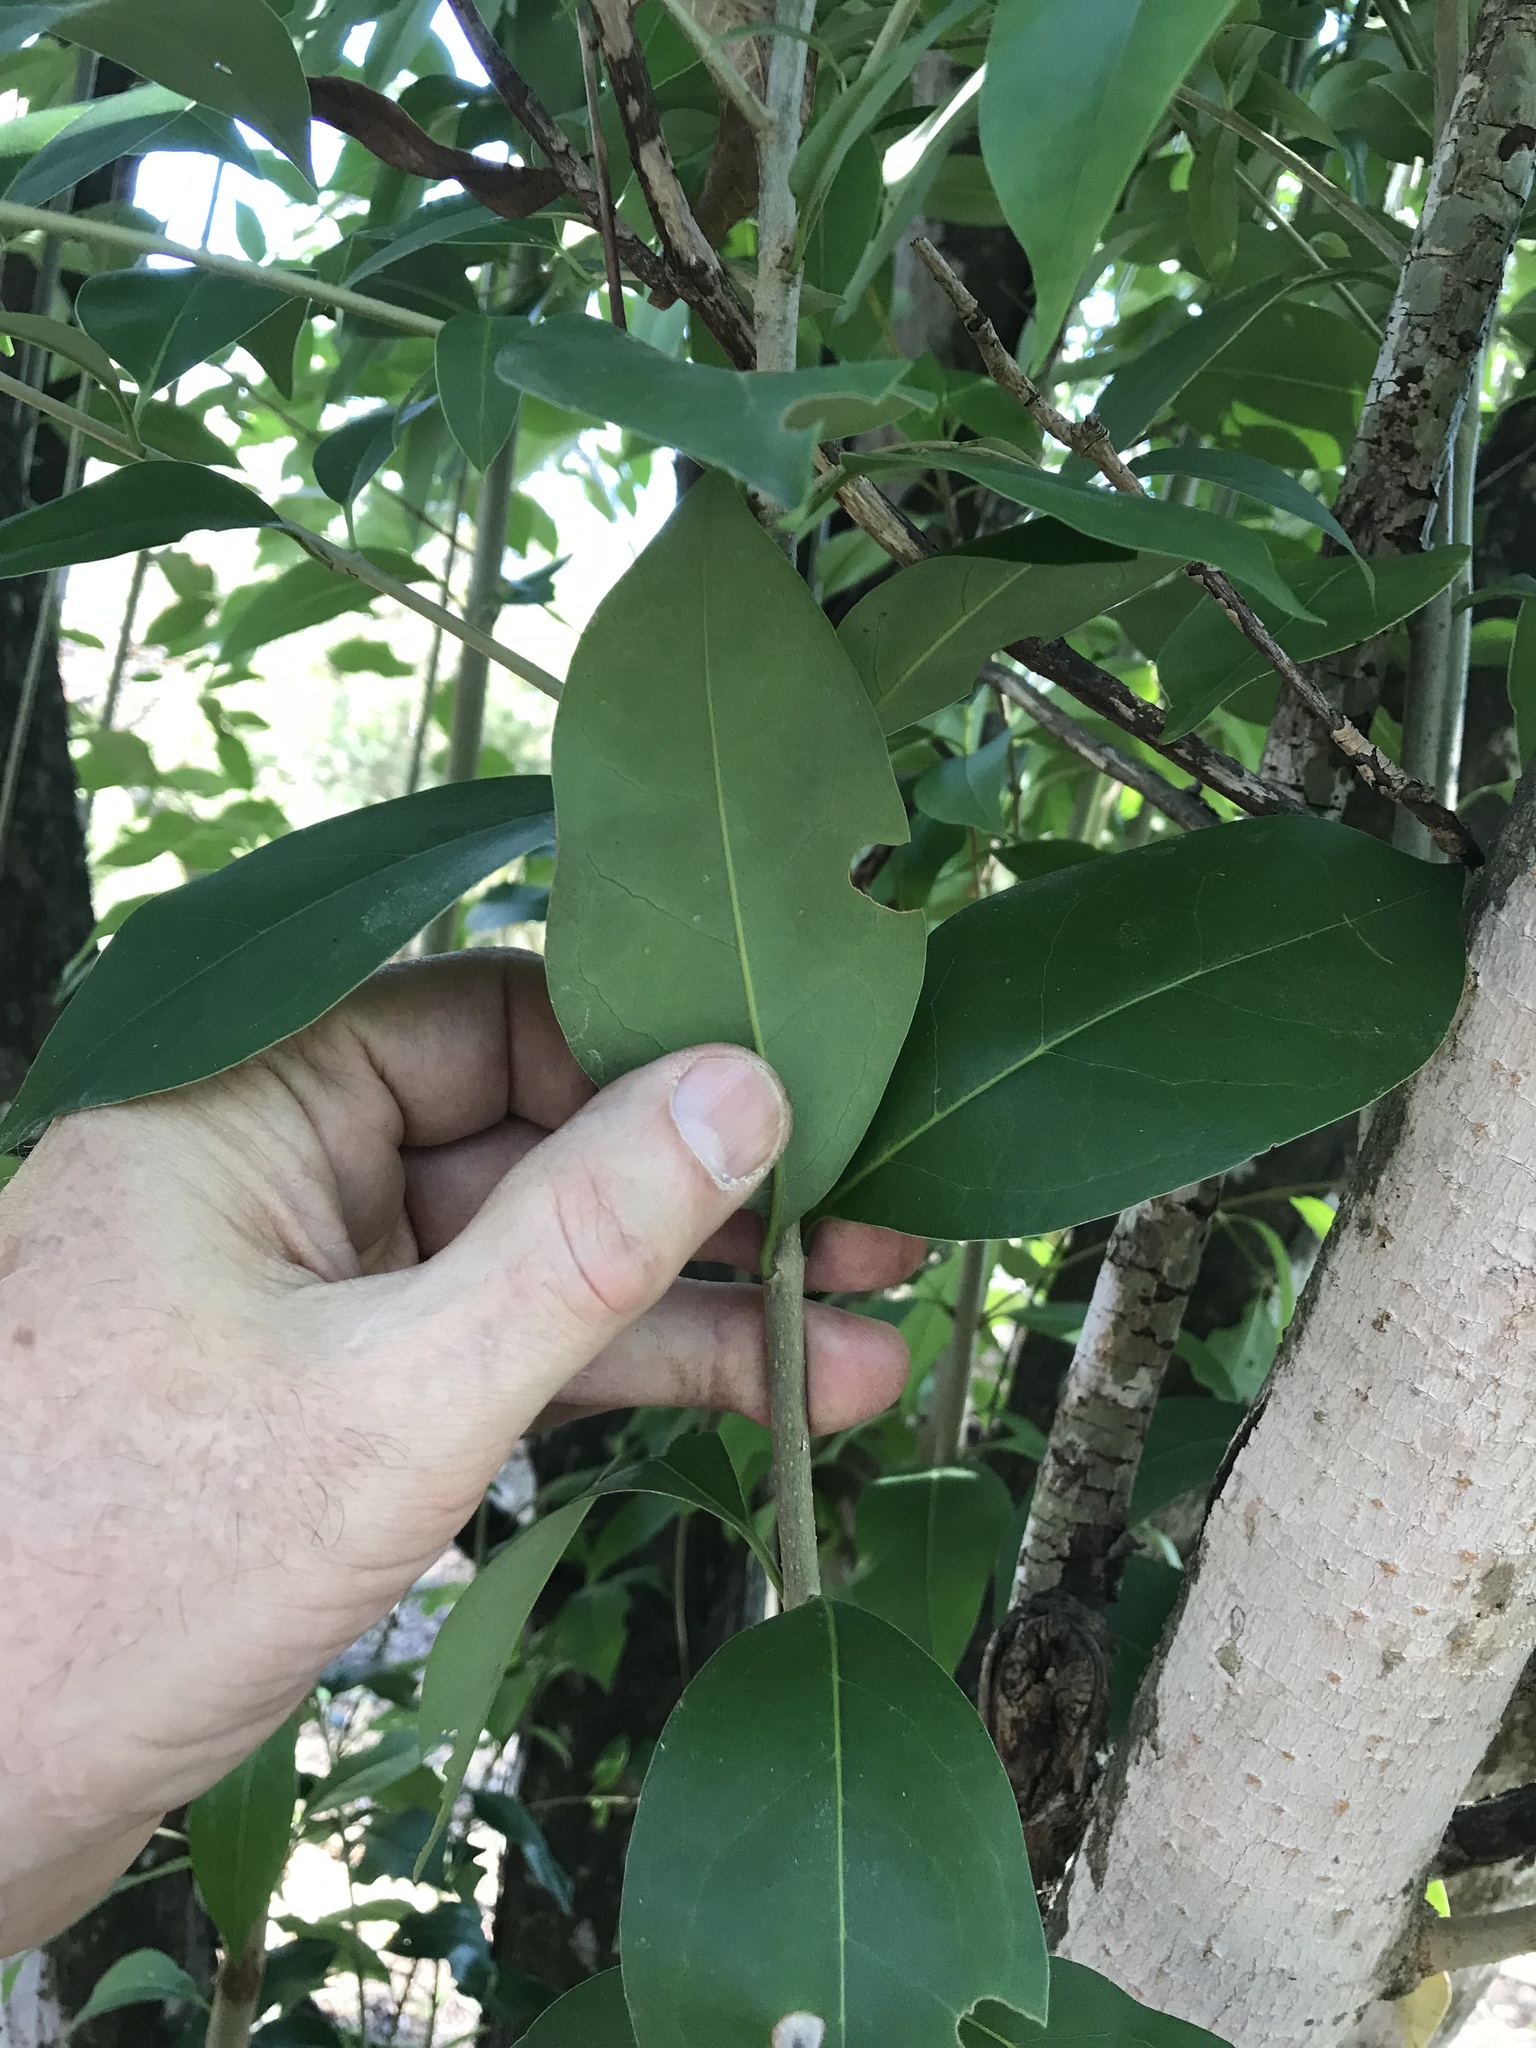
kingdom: Plantae
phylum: Tracheophyta
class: Magnoliopsida
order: Lamiales
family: Oleaceae
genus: Ligustrum
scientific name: Ligustrum lucidum
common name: Glossy privet
